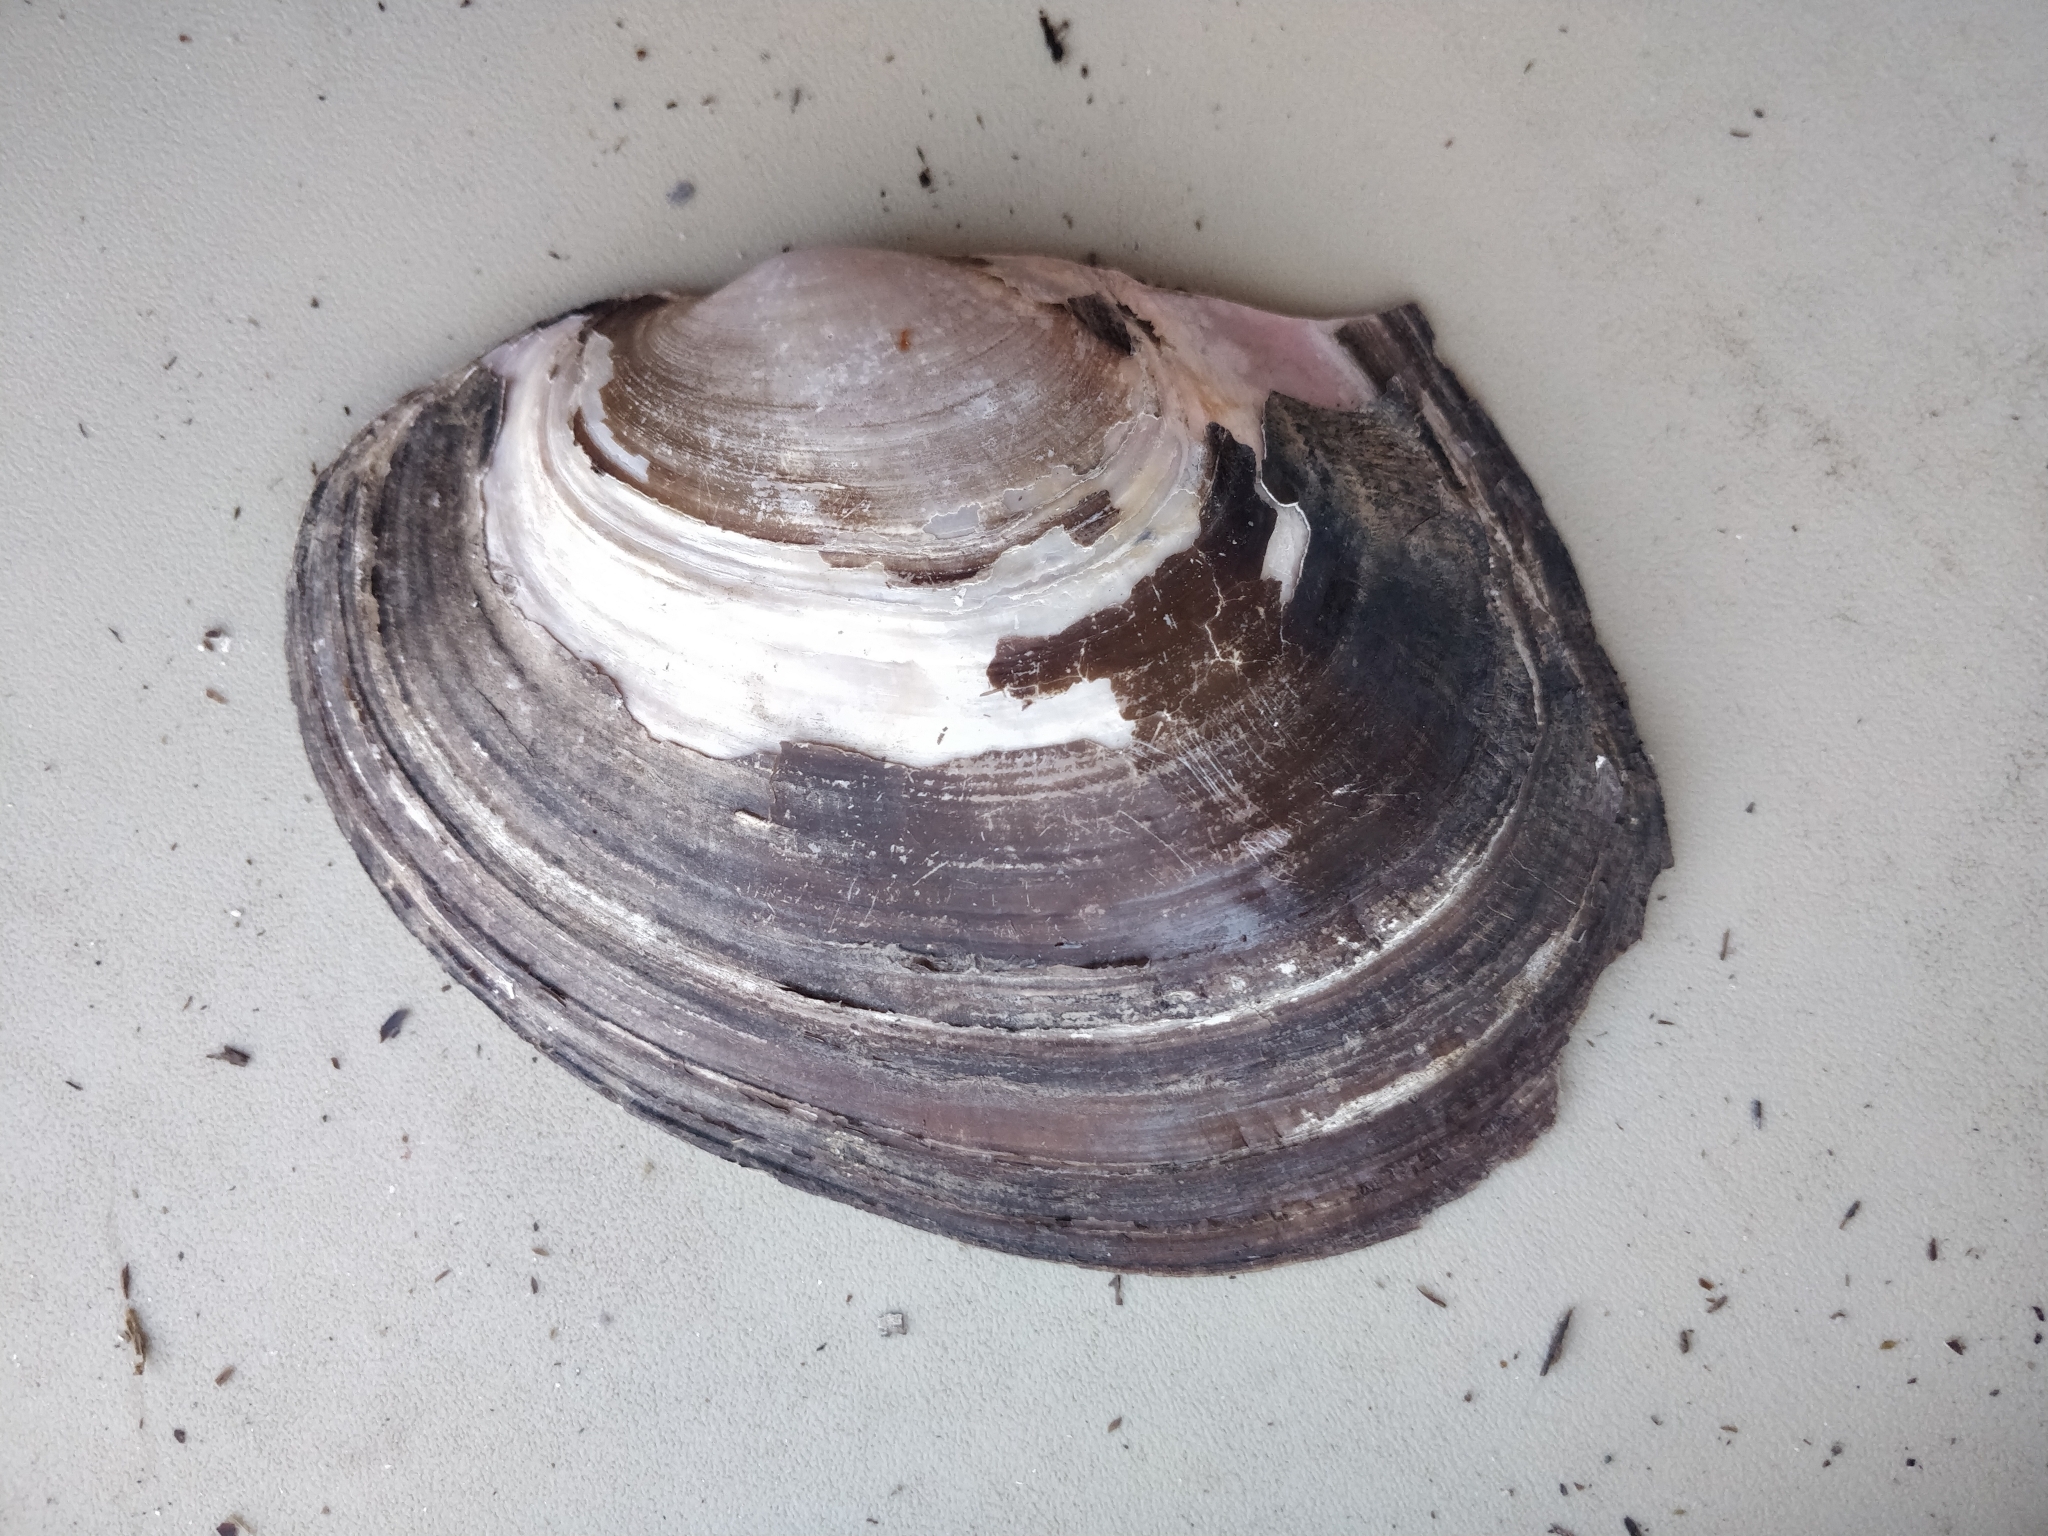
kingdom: Animalia
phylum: Mollusca
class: Bivalvia
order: Unionida
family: Unionidae
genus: Potamilus
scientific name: Potamilus ohiensis
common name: Pink papershell
